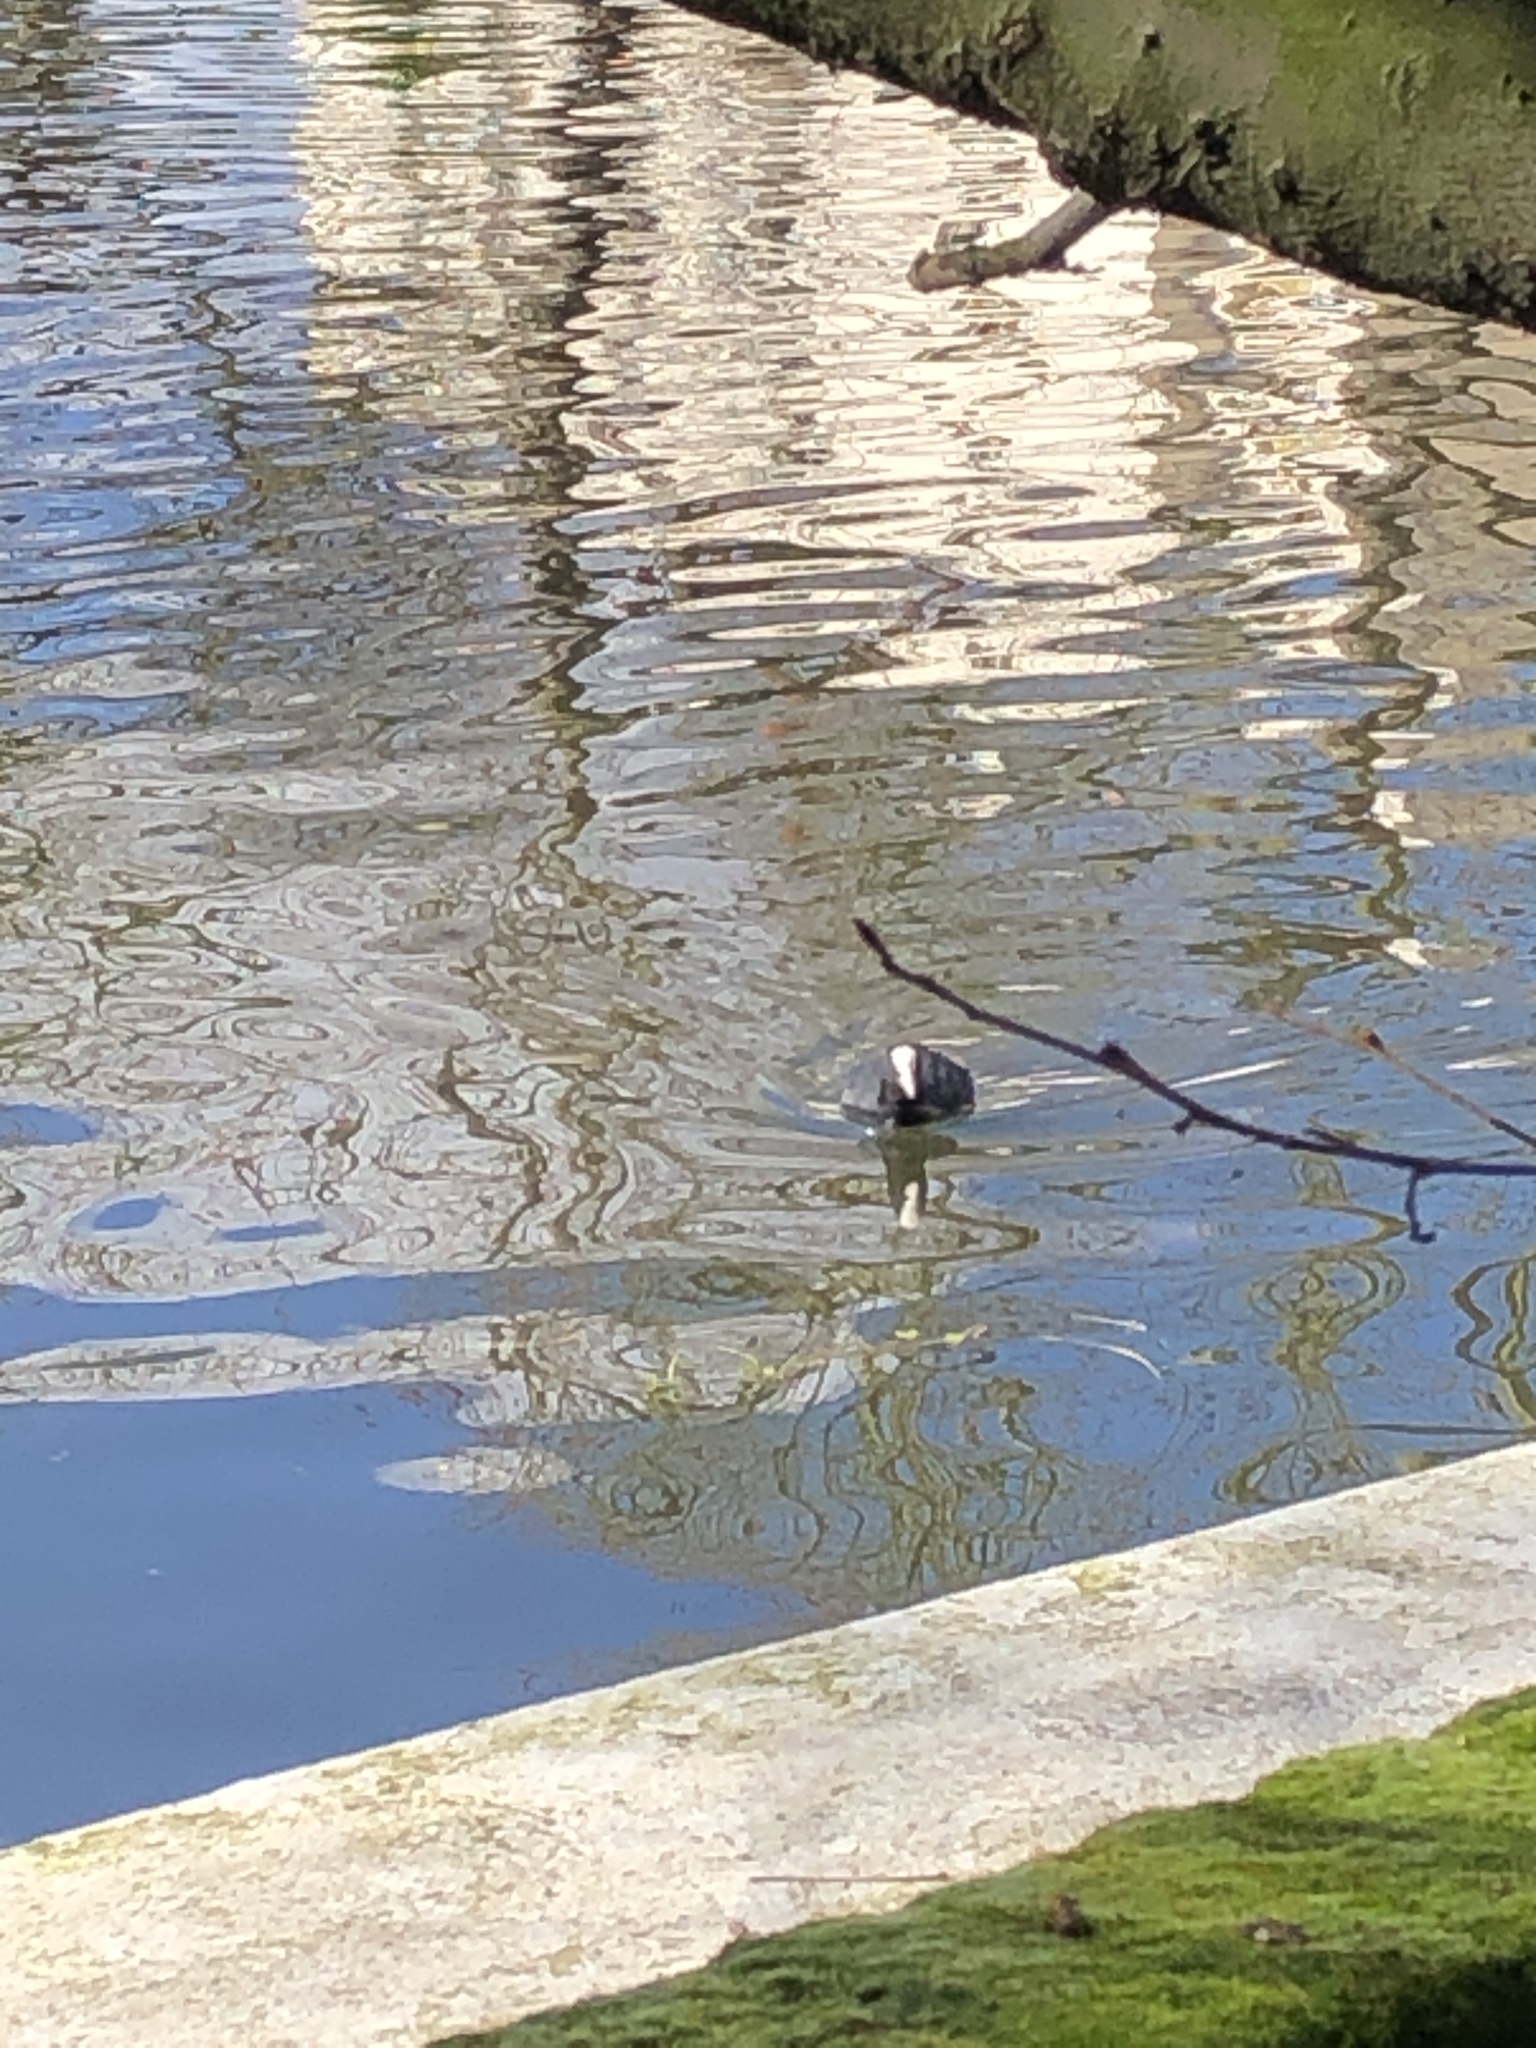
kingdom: Animalia
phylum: Chordata
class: Aves
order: Gruiformes
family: Rallidae
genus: Fulica
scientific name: Fulica atra
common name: Eurasian coot
